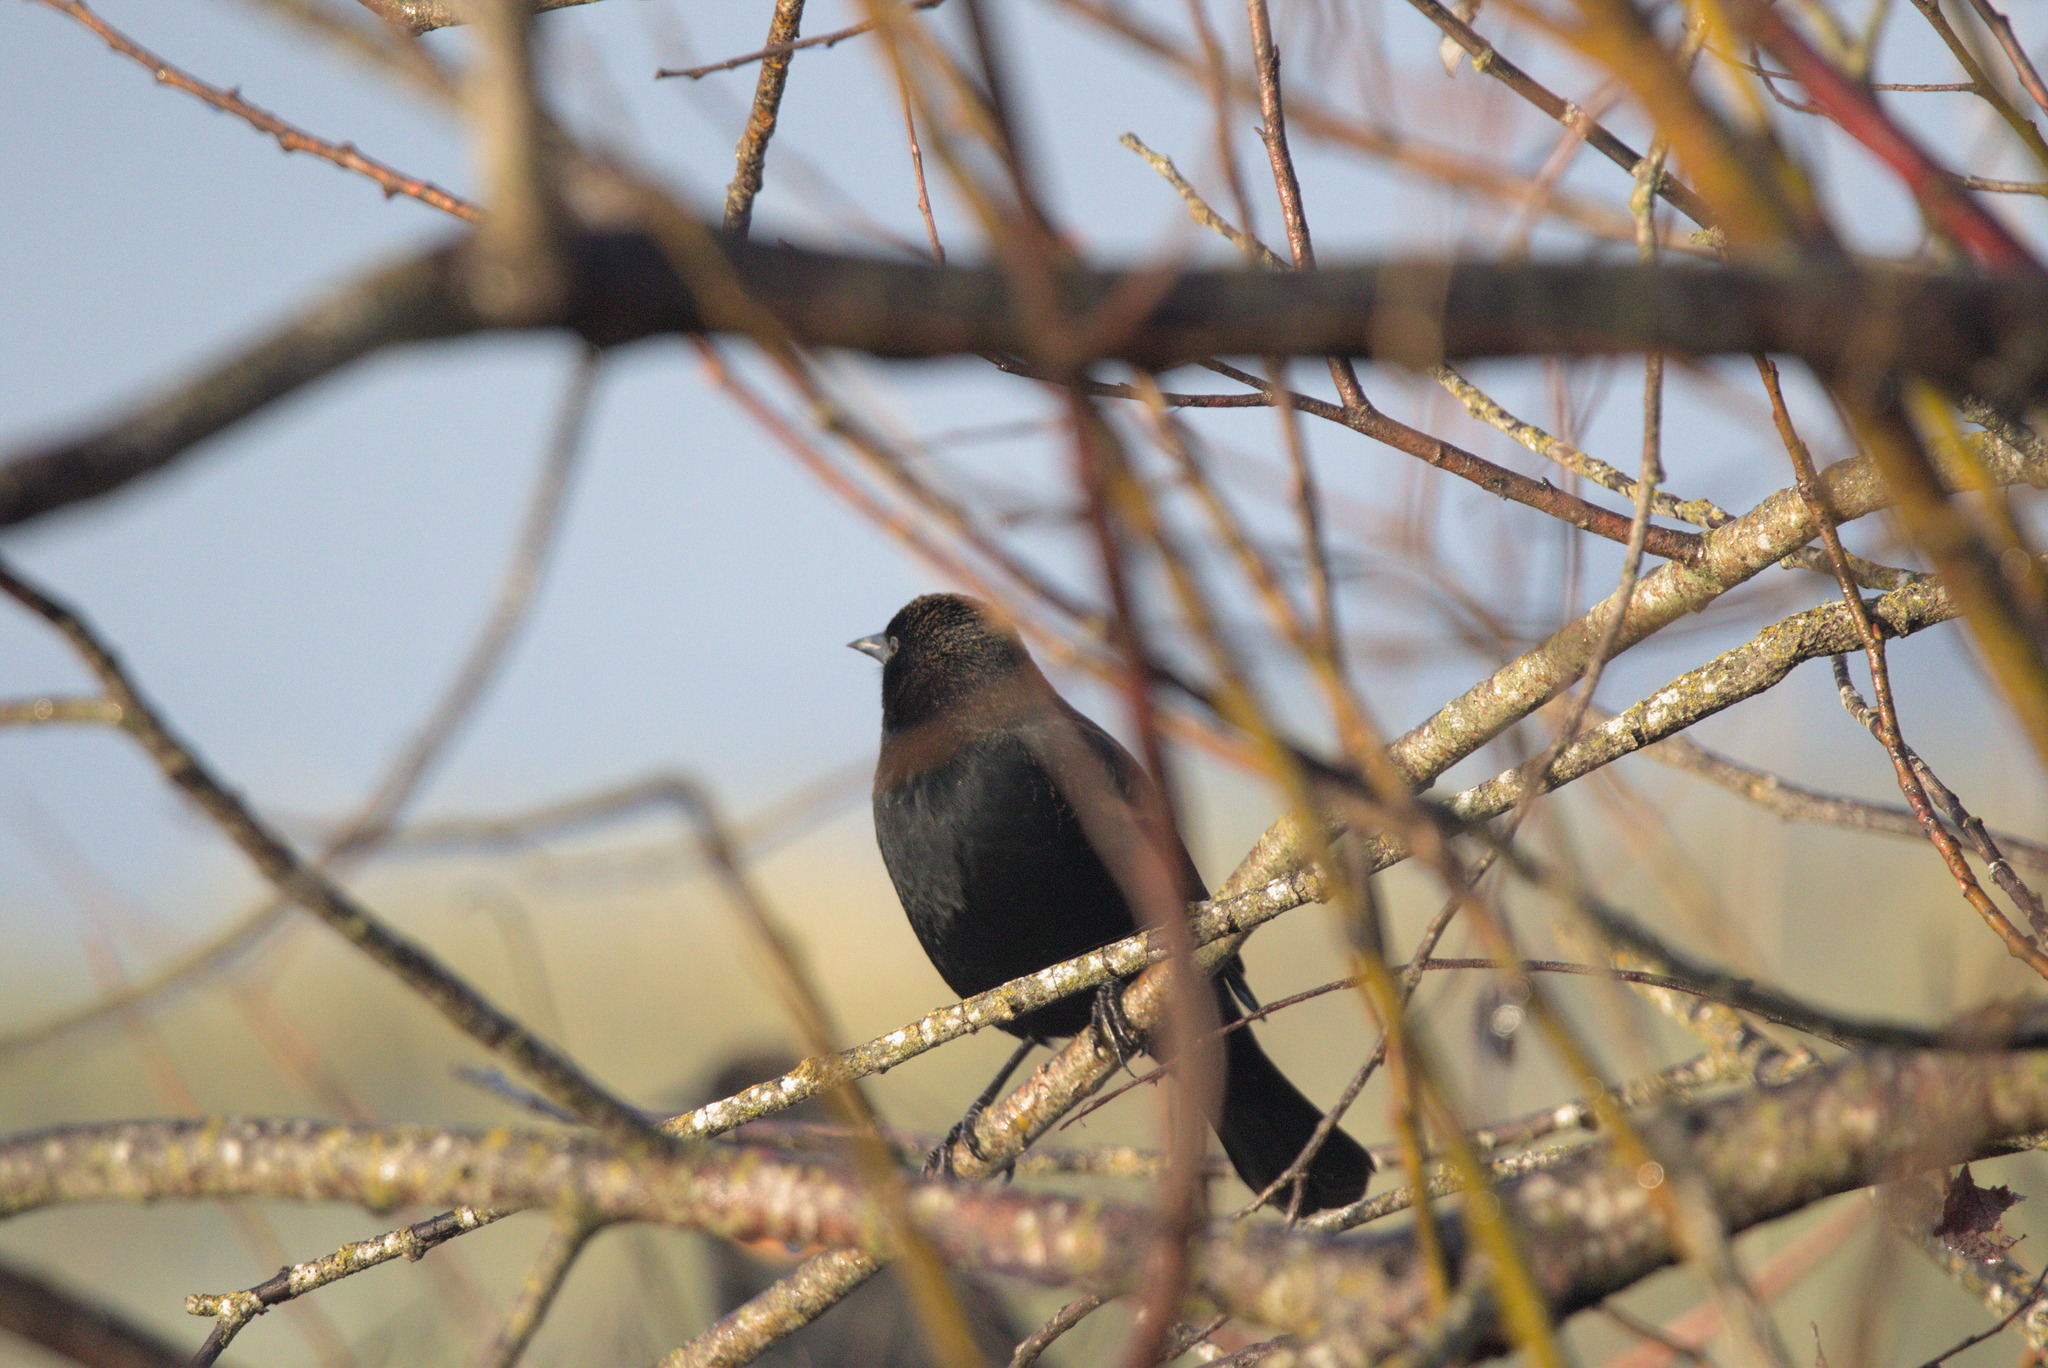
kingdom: Animalia
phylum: Chordata
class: Aves
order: Passeriformes
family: Icteridae
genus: Agelaius
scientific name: Agelaius phoeniceus
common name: Red-winged blackbird
